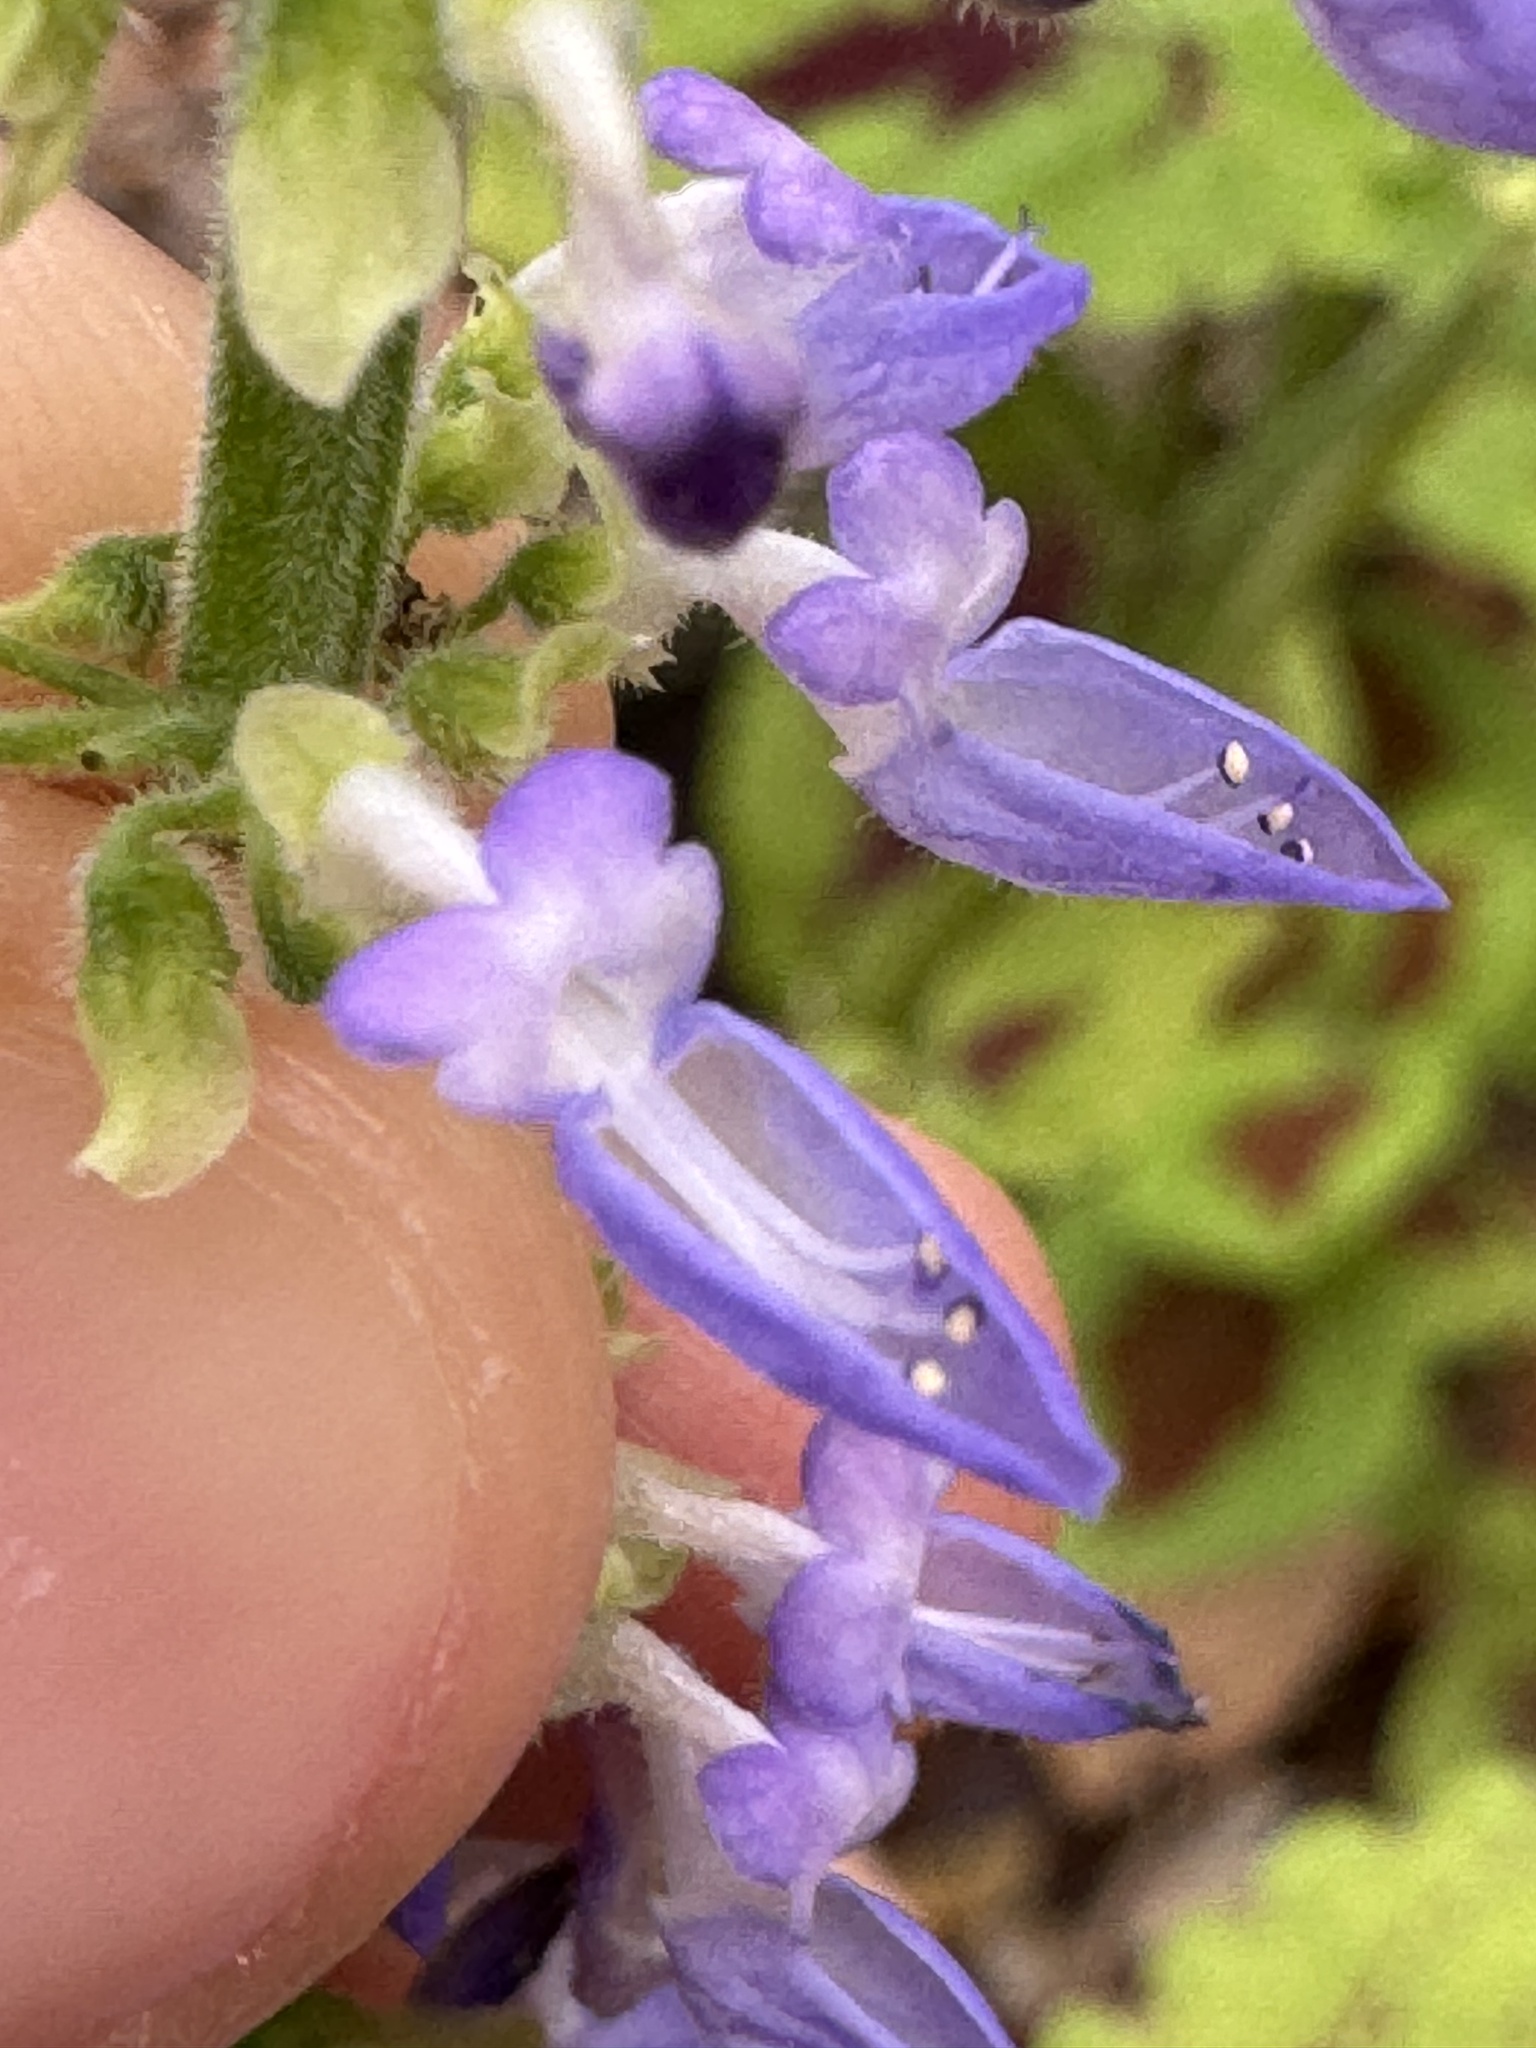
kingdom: Plantae
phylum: Tracheophyta
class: Magnoliopsida
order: Lamiales
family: Lamiaceae
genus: Coleus
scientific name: Coleus scutellarioides
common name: Coleus
